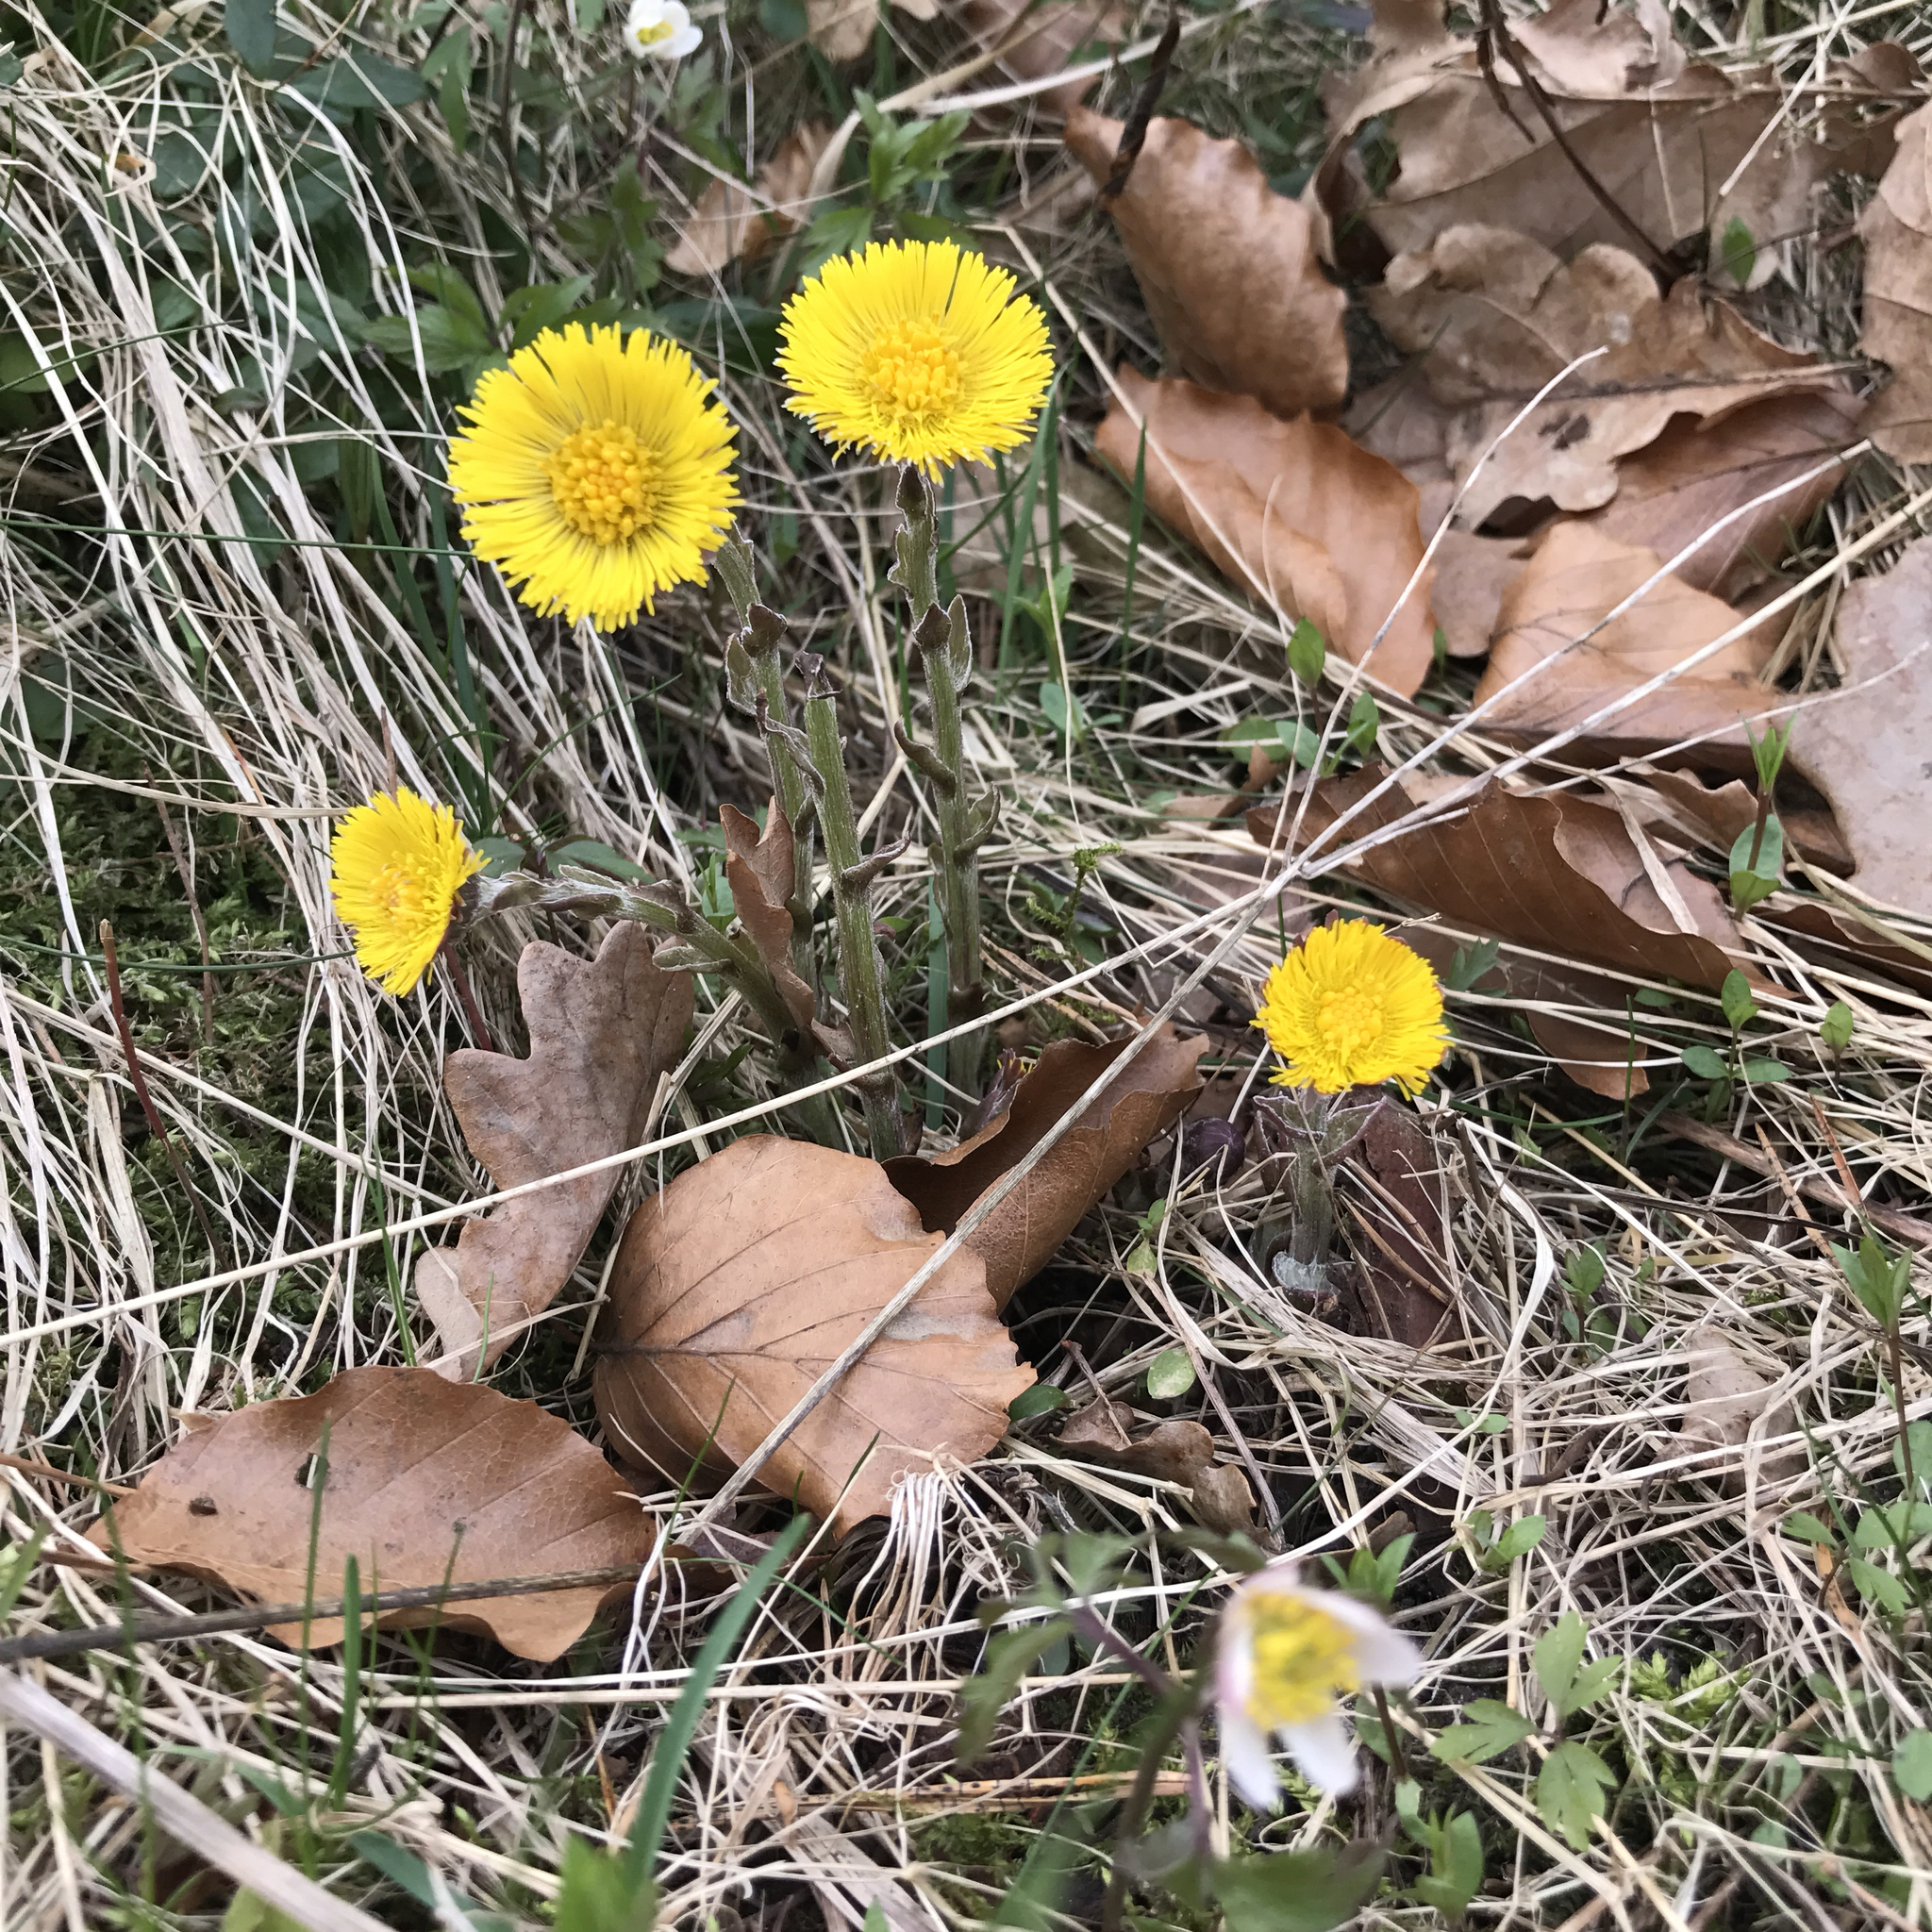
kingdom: Plantae
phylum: Tracheophyta
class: Magnoliopsida
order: Asterales
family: Asteraceae
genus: Tussilago
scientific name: Tussilago farfara
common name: Coltsfoot
